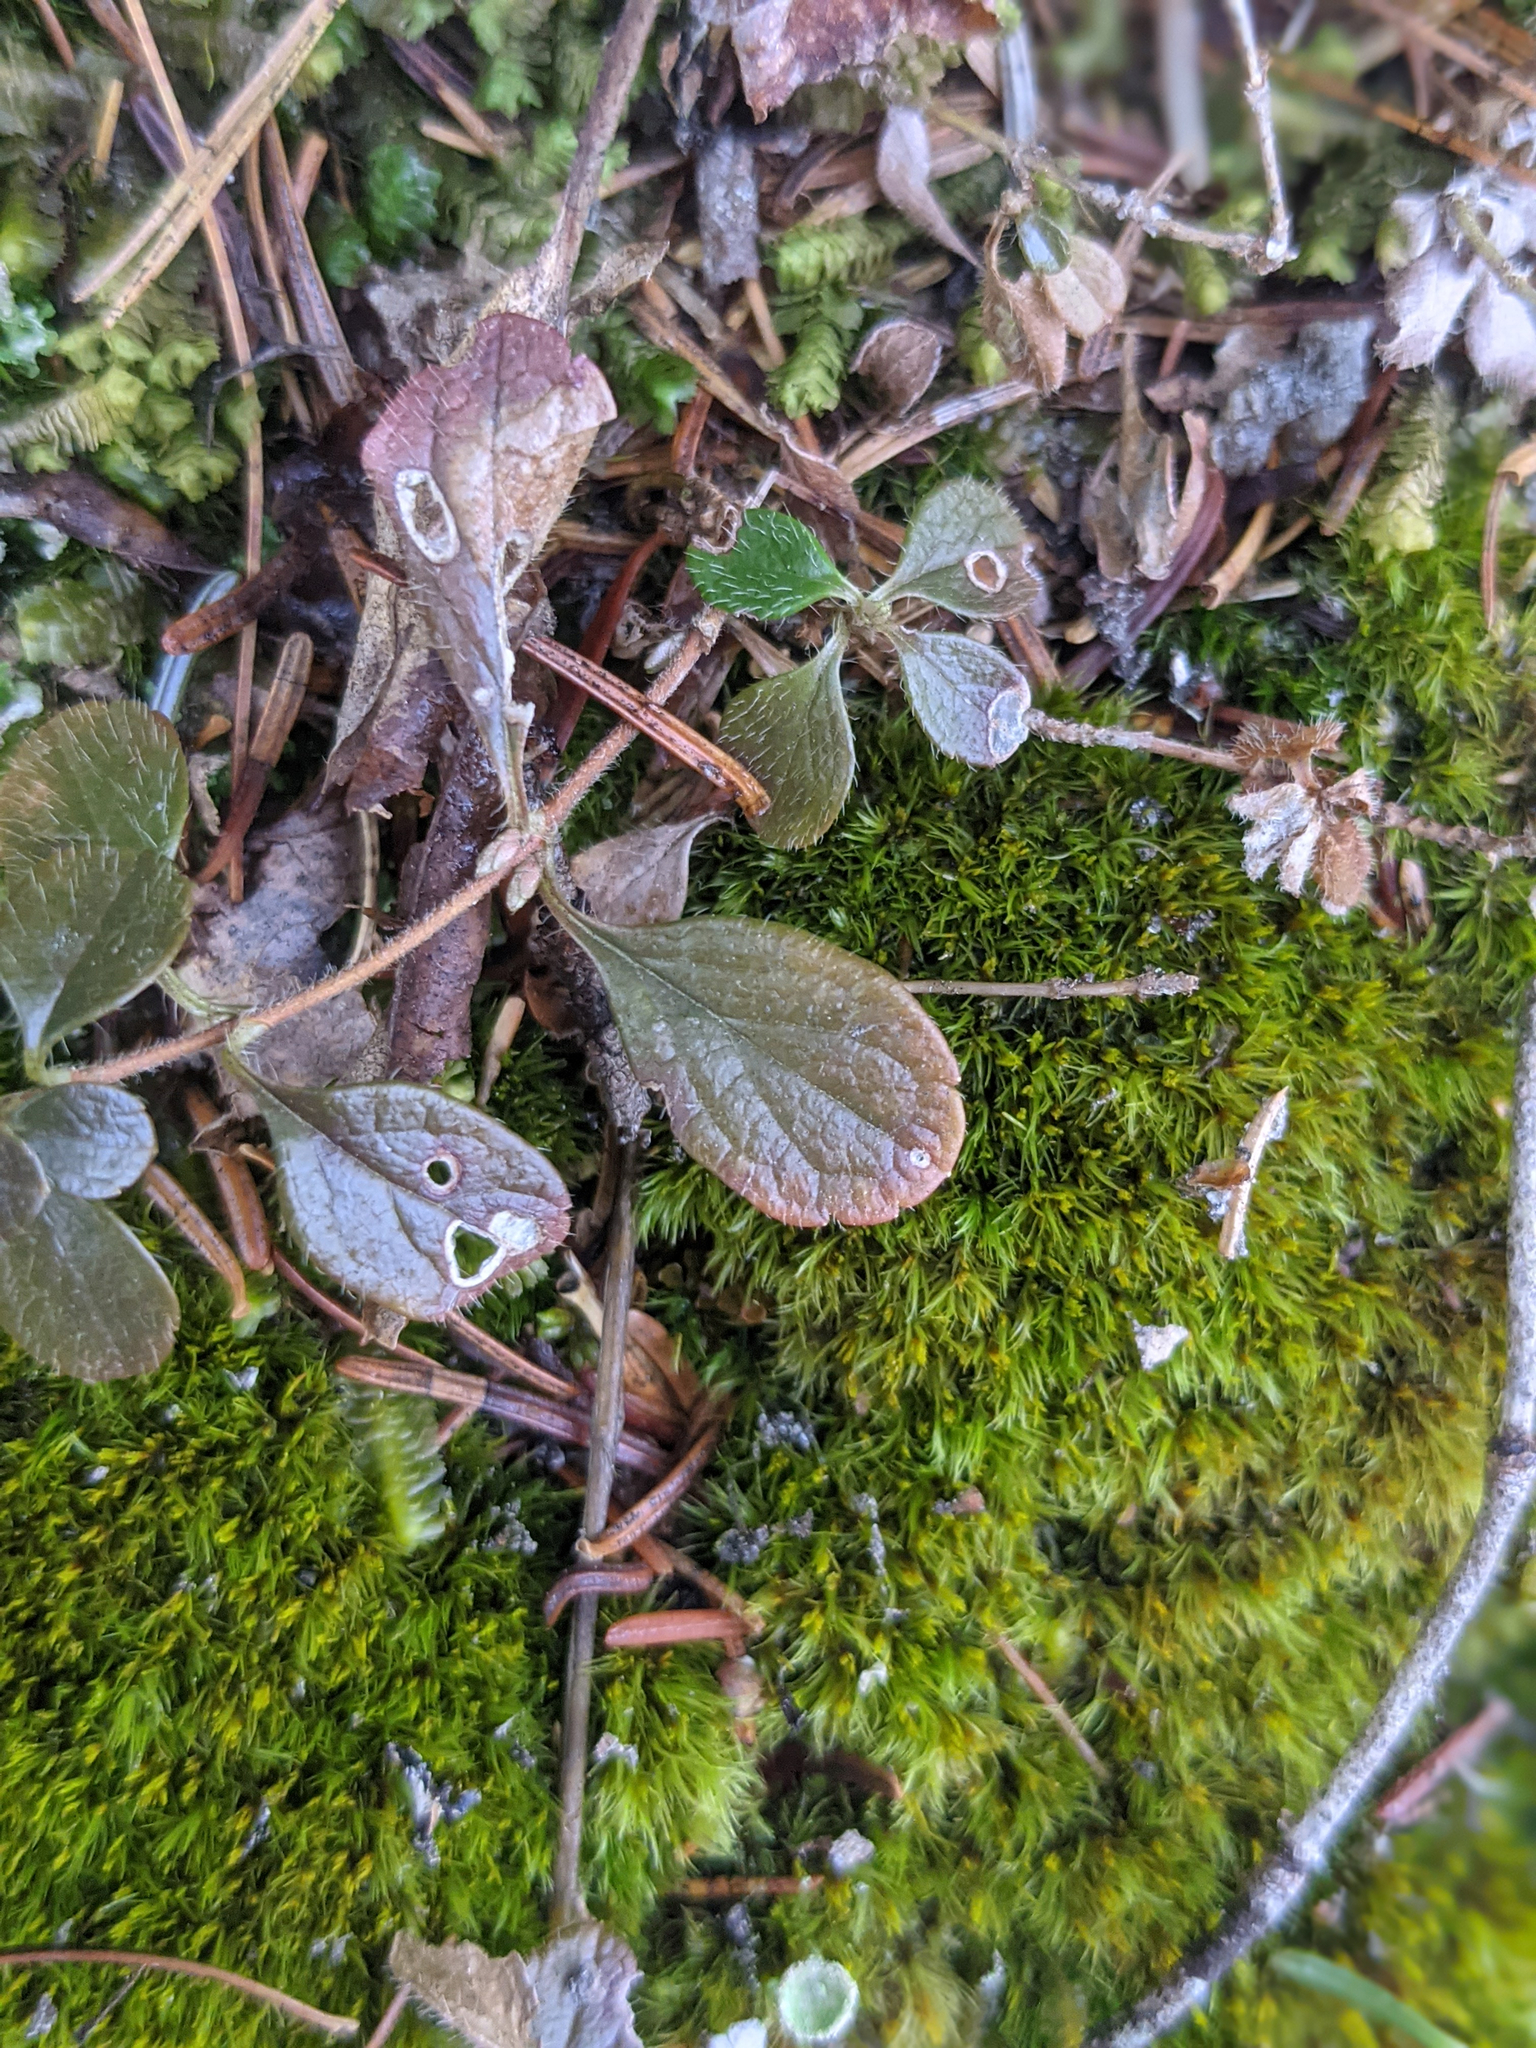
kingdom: Plantae
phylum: Tracheophyta
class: Magnoliopsida
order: Dipsacales
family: Caprifoliaceae
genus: Linnaea
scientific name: Linnaea borealis
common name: Twinflower
